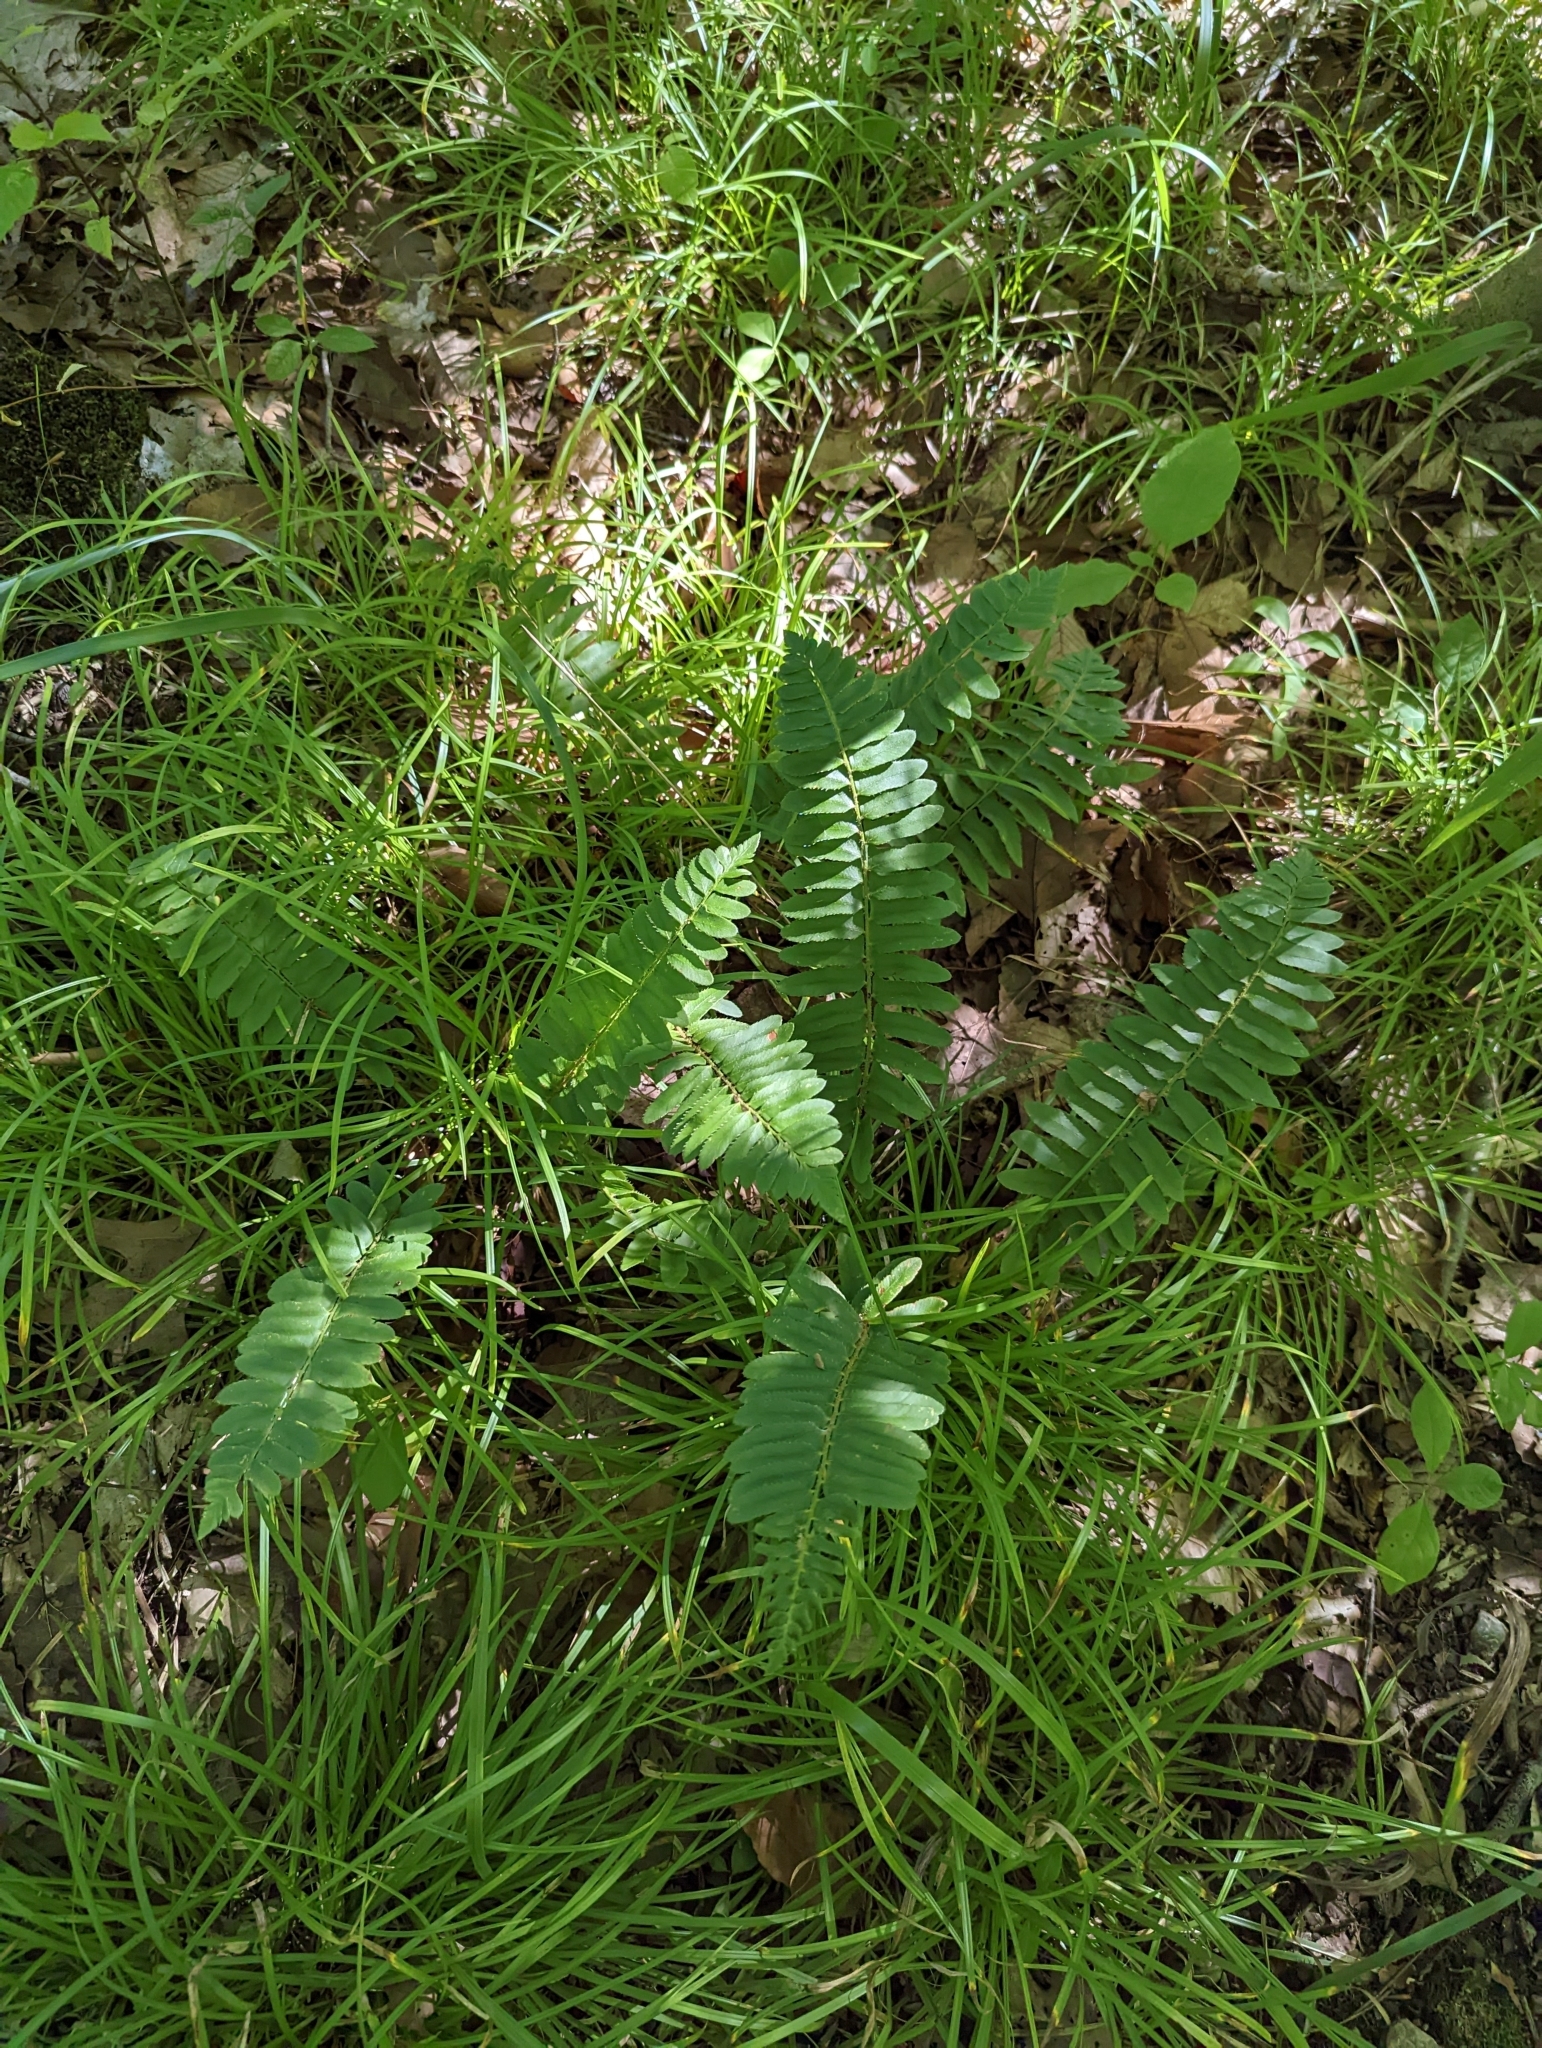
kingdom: Plantae
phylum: Tracheophyta
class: Polypodiopsida
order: Polypodiales
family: Dryopteridaceae
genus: Polystichum
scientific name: Polystichum acrostichoides
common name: Christmas fern
